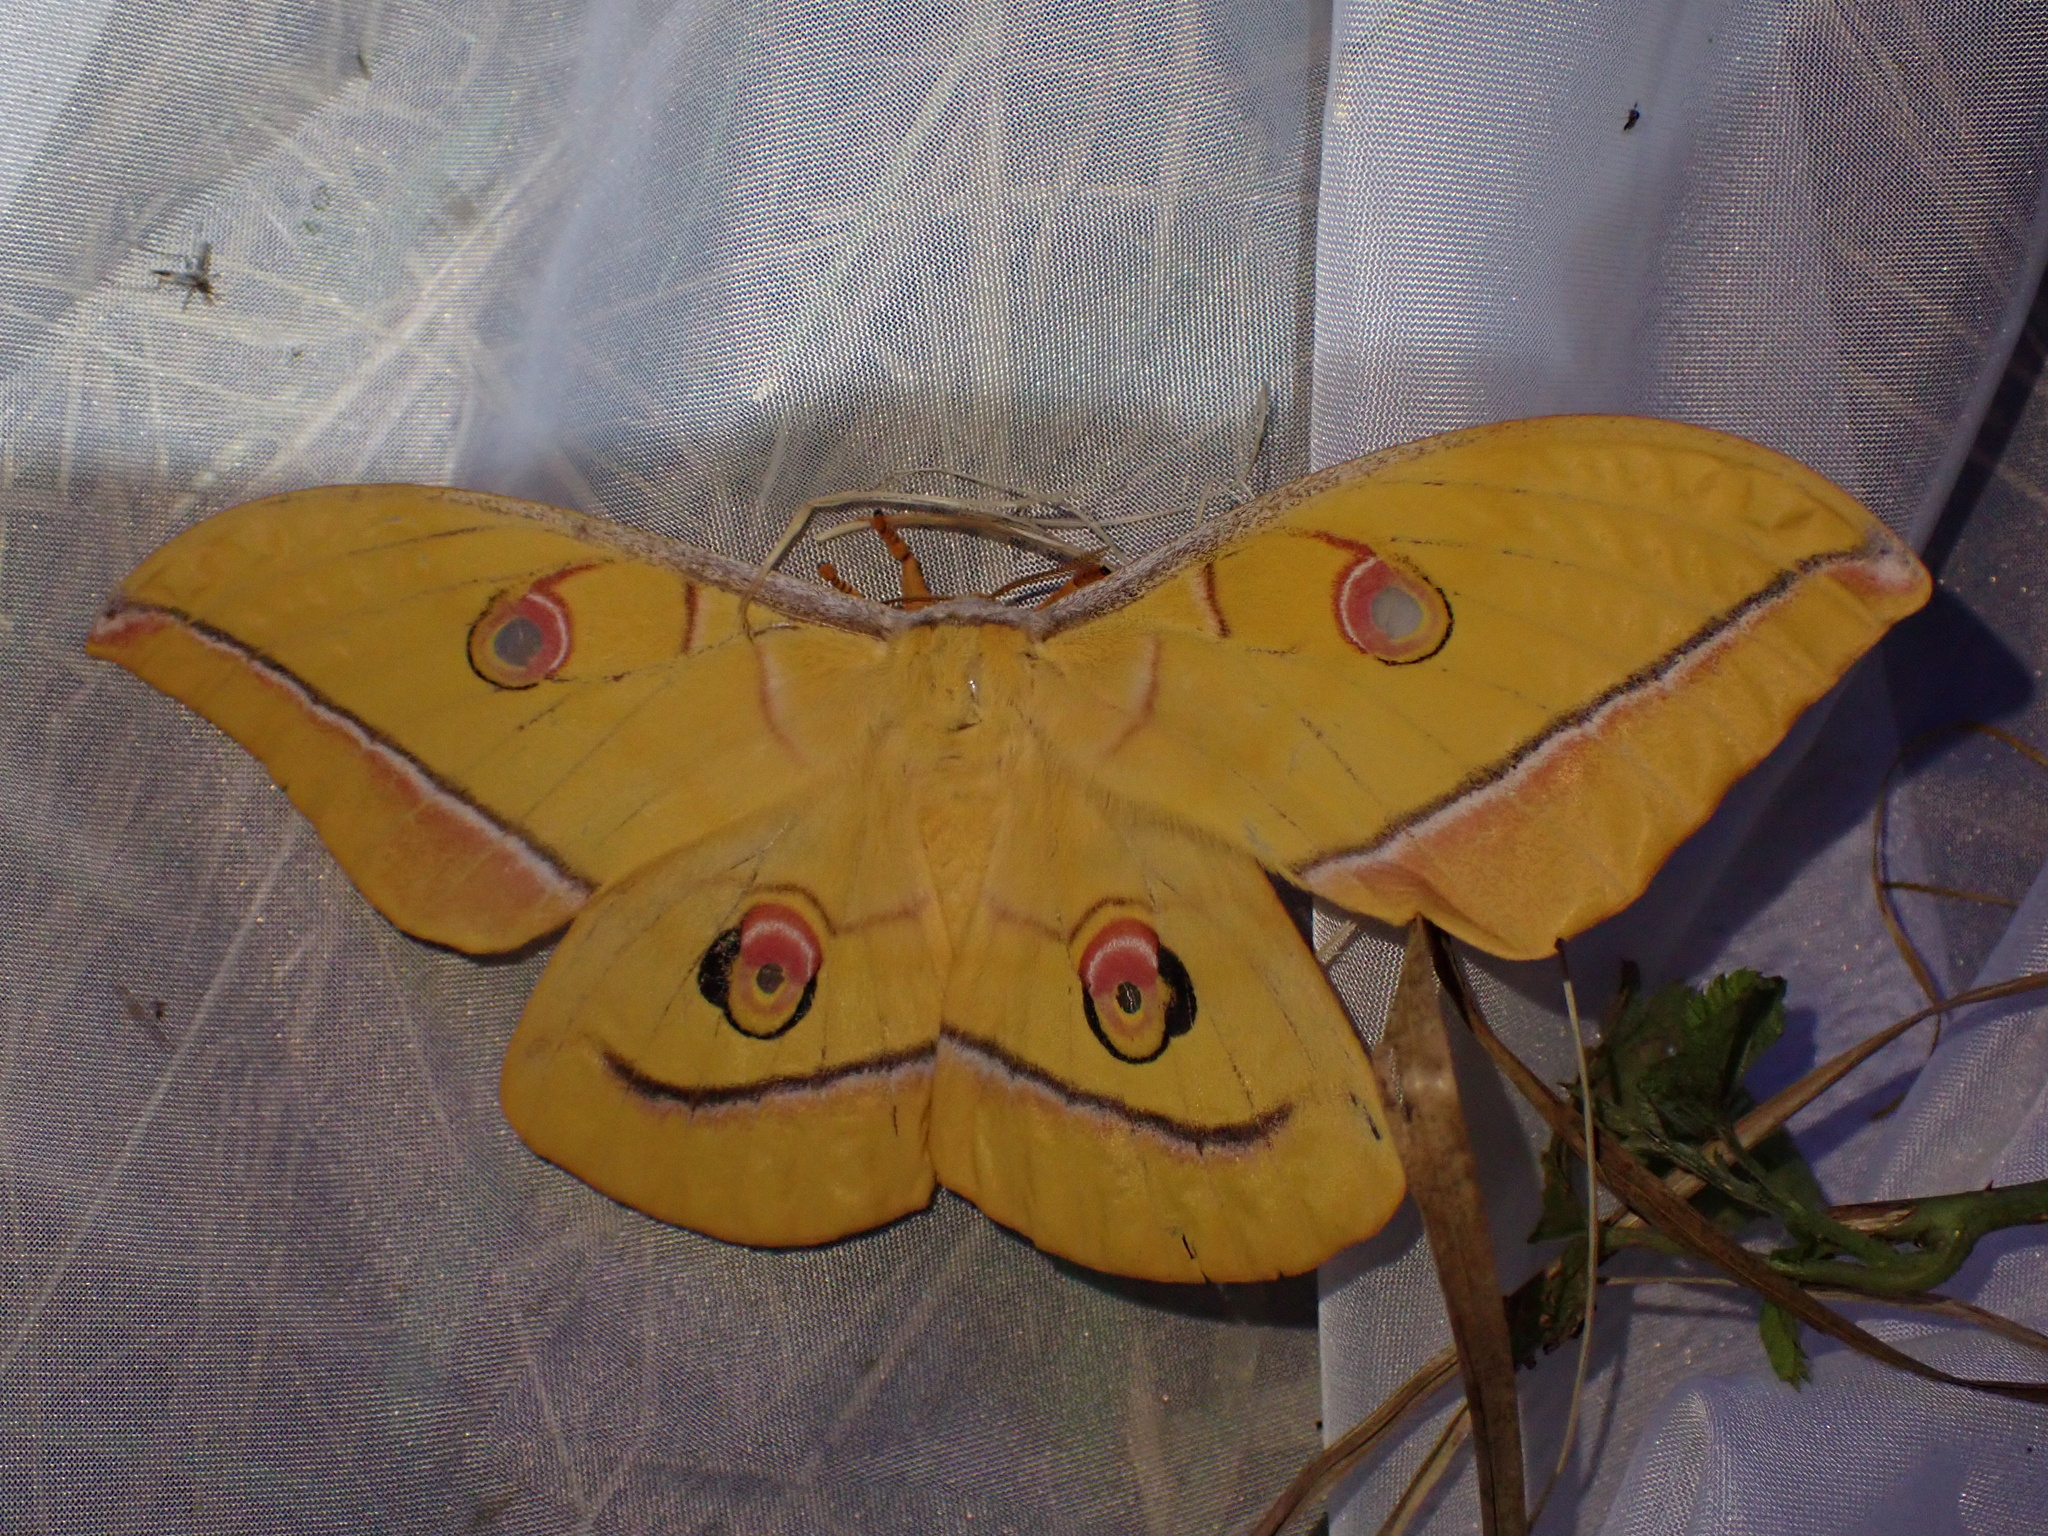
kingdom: Animalia
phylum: Arthropoda
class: Insecta
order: Lepidoptera
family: Saturniidae
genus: Antheraea
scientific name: Antheraea yamamai
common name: Japanese oak silk moth
